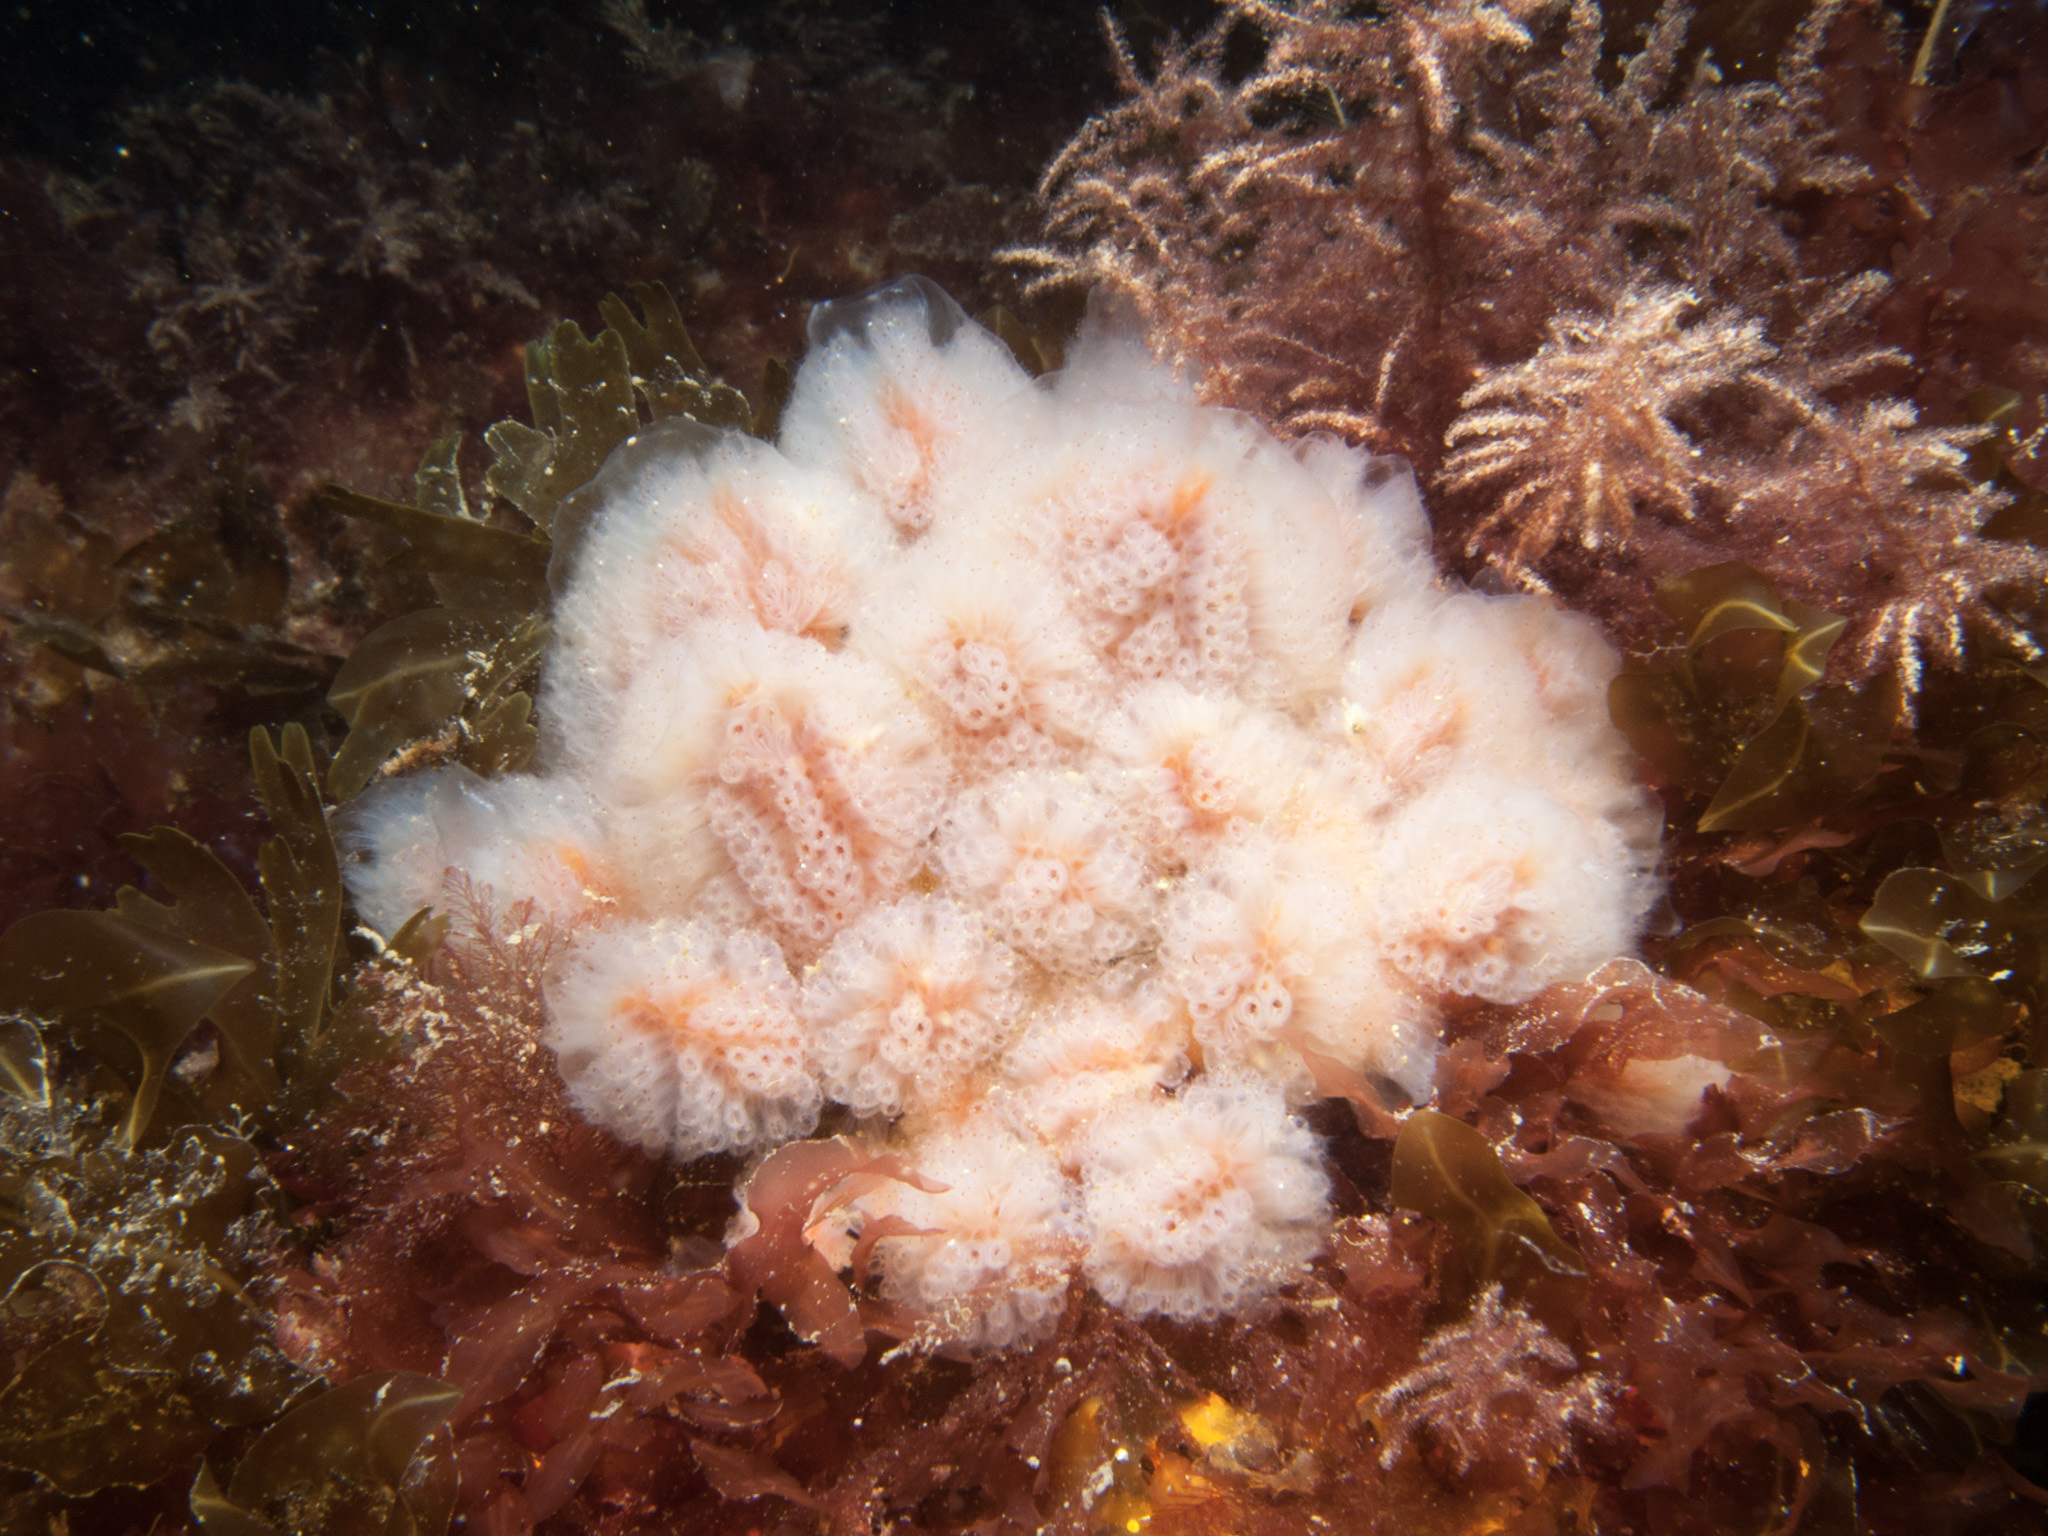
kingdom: Animalia
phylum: Chordata
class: Ascidiacea
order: Aplousobranchia
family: Polyclinidae
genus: Morchellium
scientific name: Morchellium argus
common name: Colonial sesquirt
